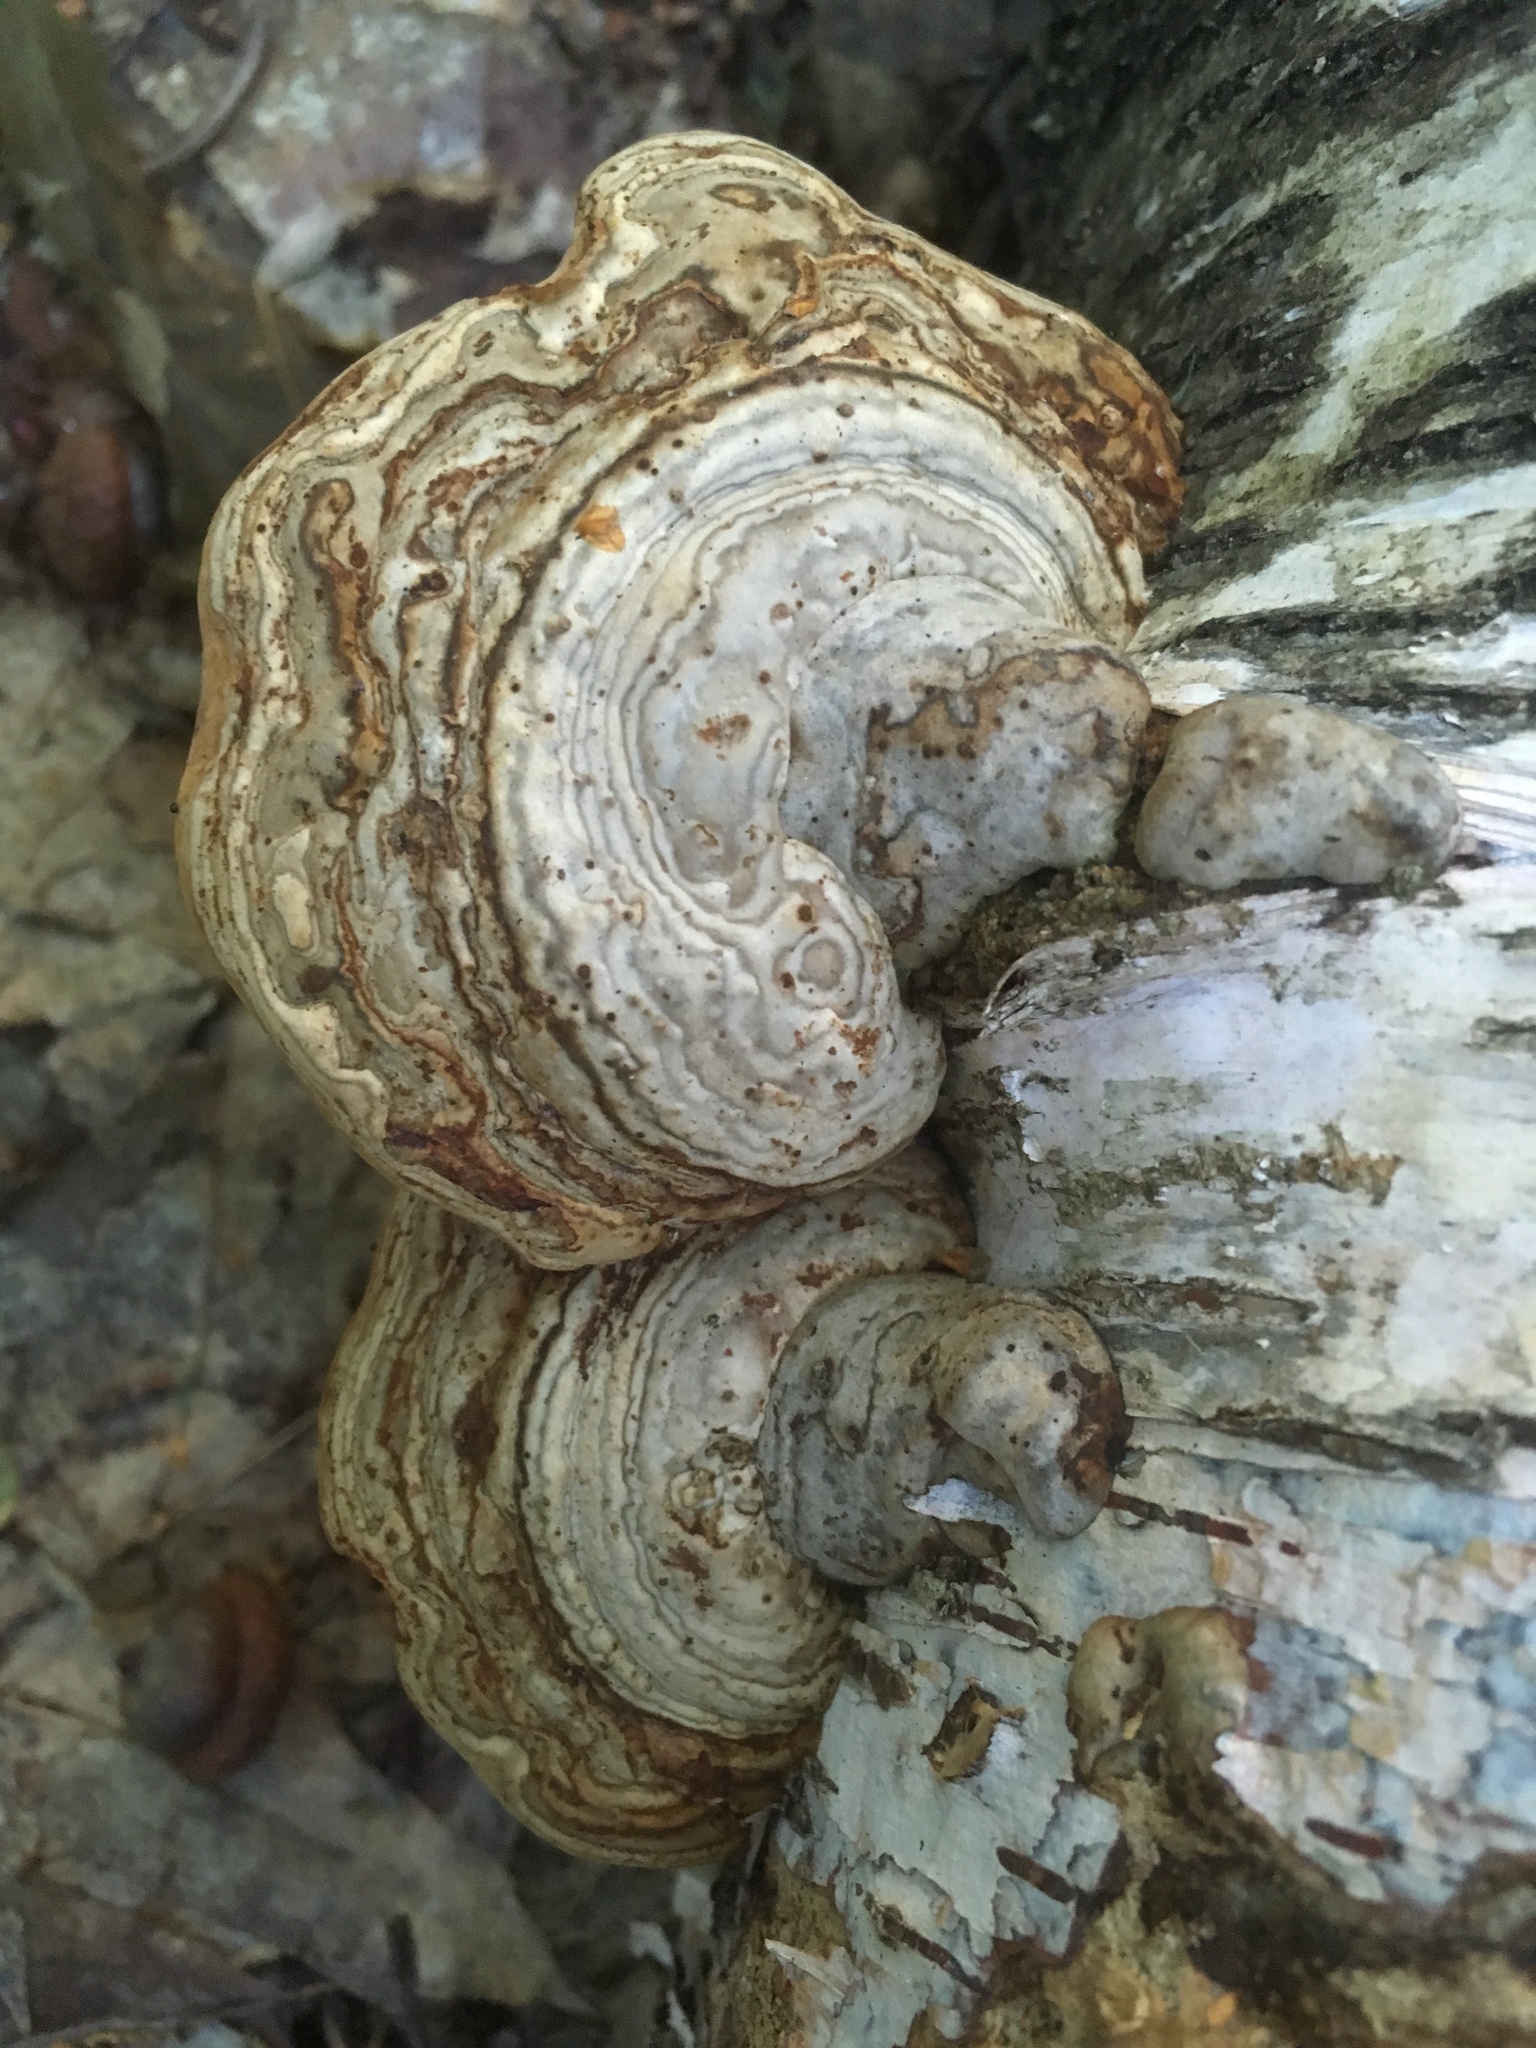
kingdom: Fungi
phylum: Basidiomycota
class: Agaricomycetes
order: Polyporales
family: Polyporaceae
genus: Fomes
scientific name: Fomes fomentarius
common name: Hoof fungus
